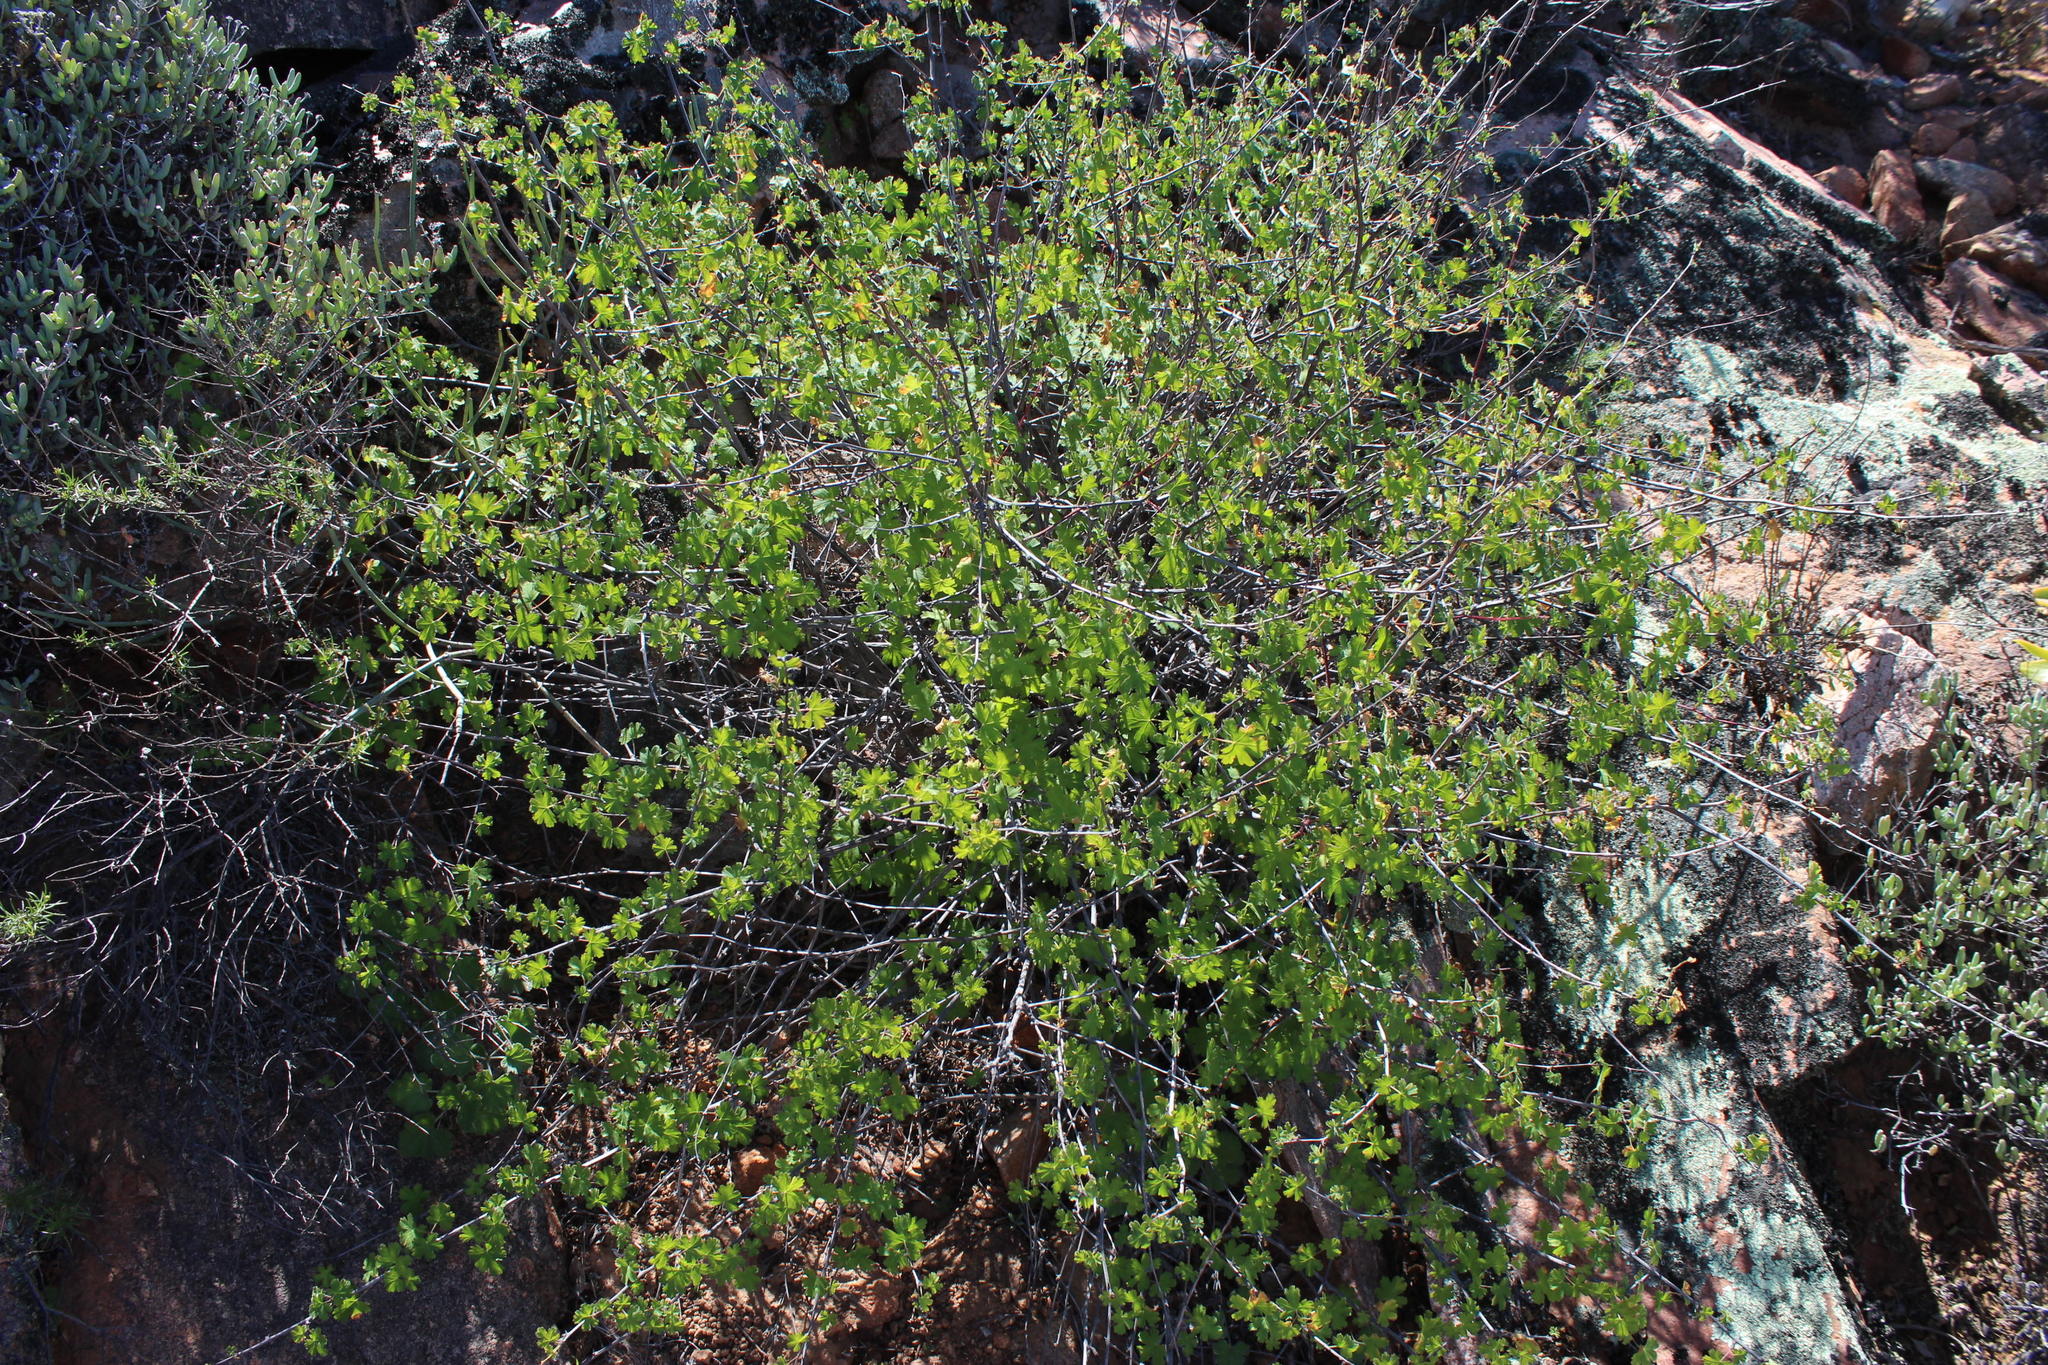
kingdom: Plantae
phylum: Tracheophyta
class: Magnoliopsida
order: Geraniales
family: Geraniaceae
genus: Pelargonium
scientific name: Pelargonium antidysentericum
